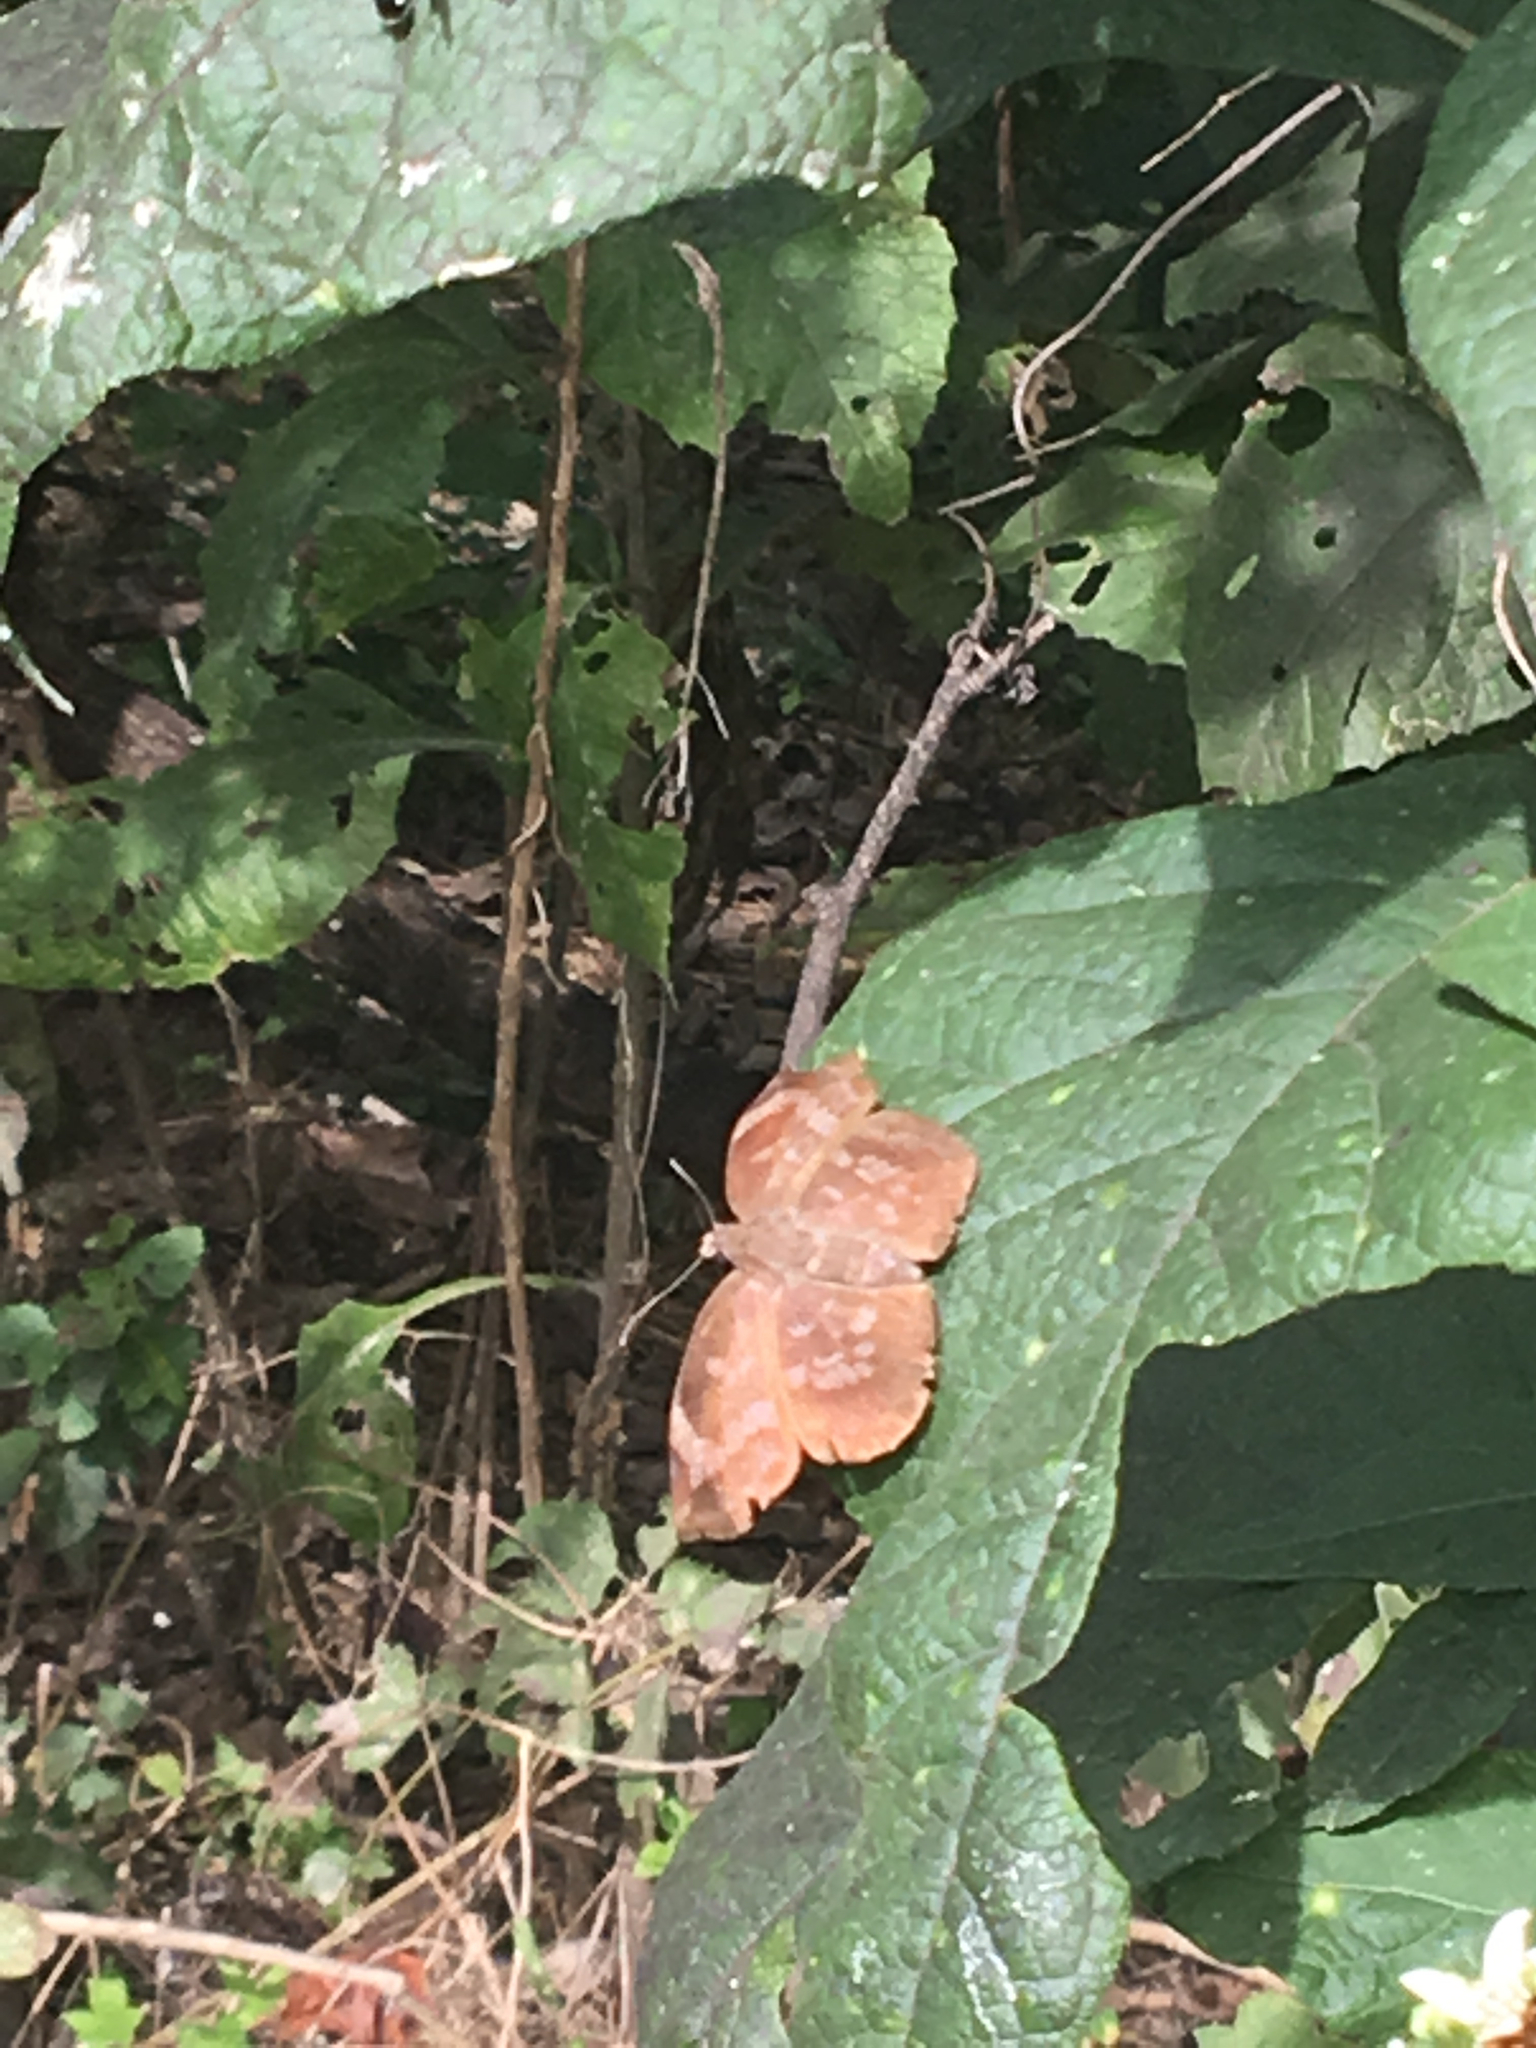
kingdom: Animalia
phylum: Arthropoda
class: Insecta
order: Lepidoptera
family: Hesperiidae
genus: Achlyodes
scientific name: Achlyodes thraso
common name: Sickle-winged skipper
